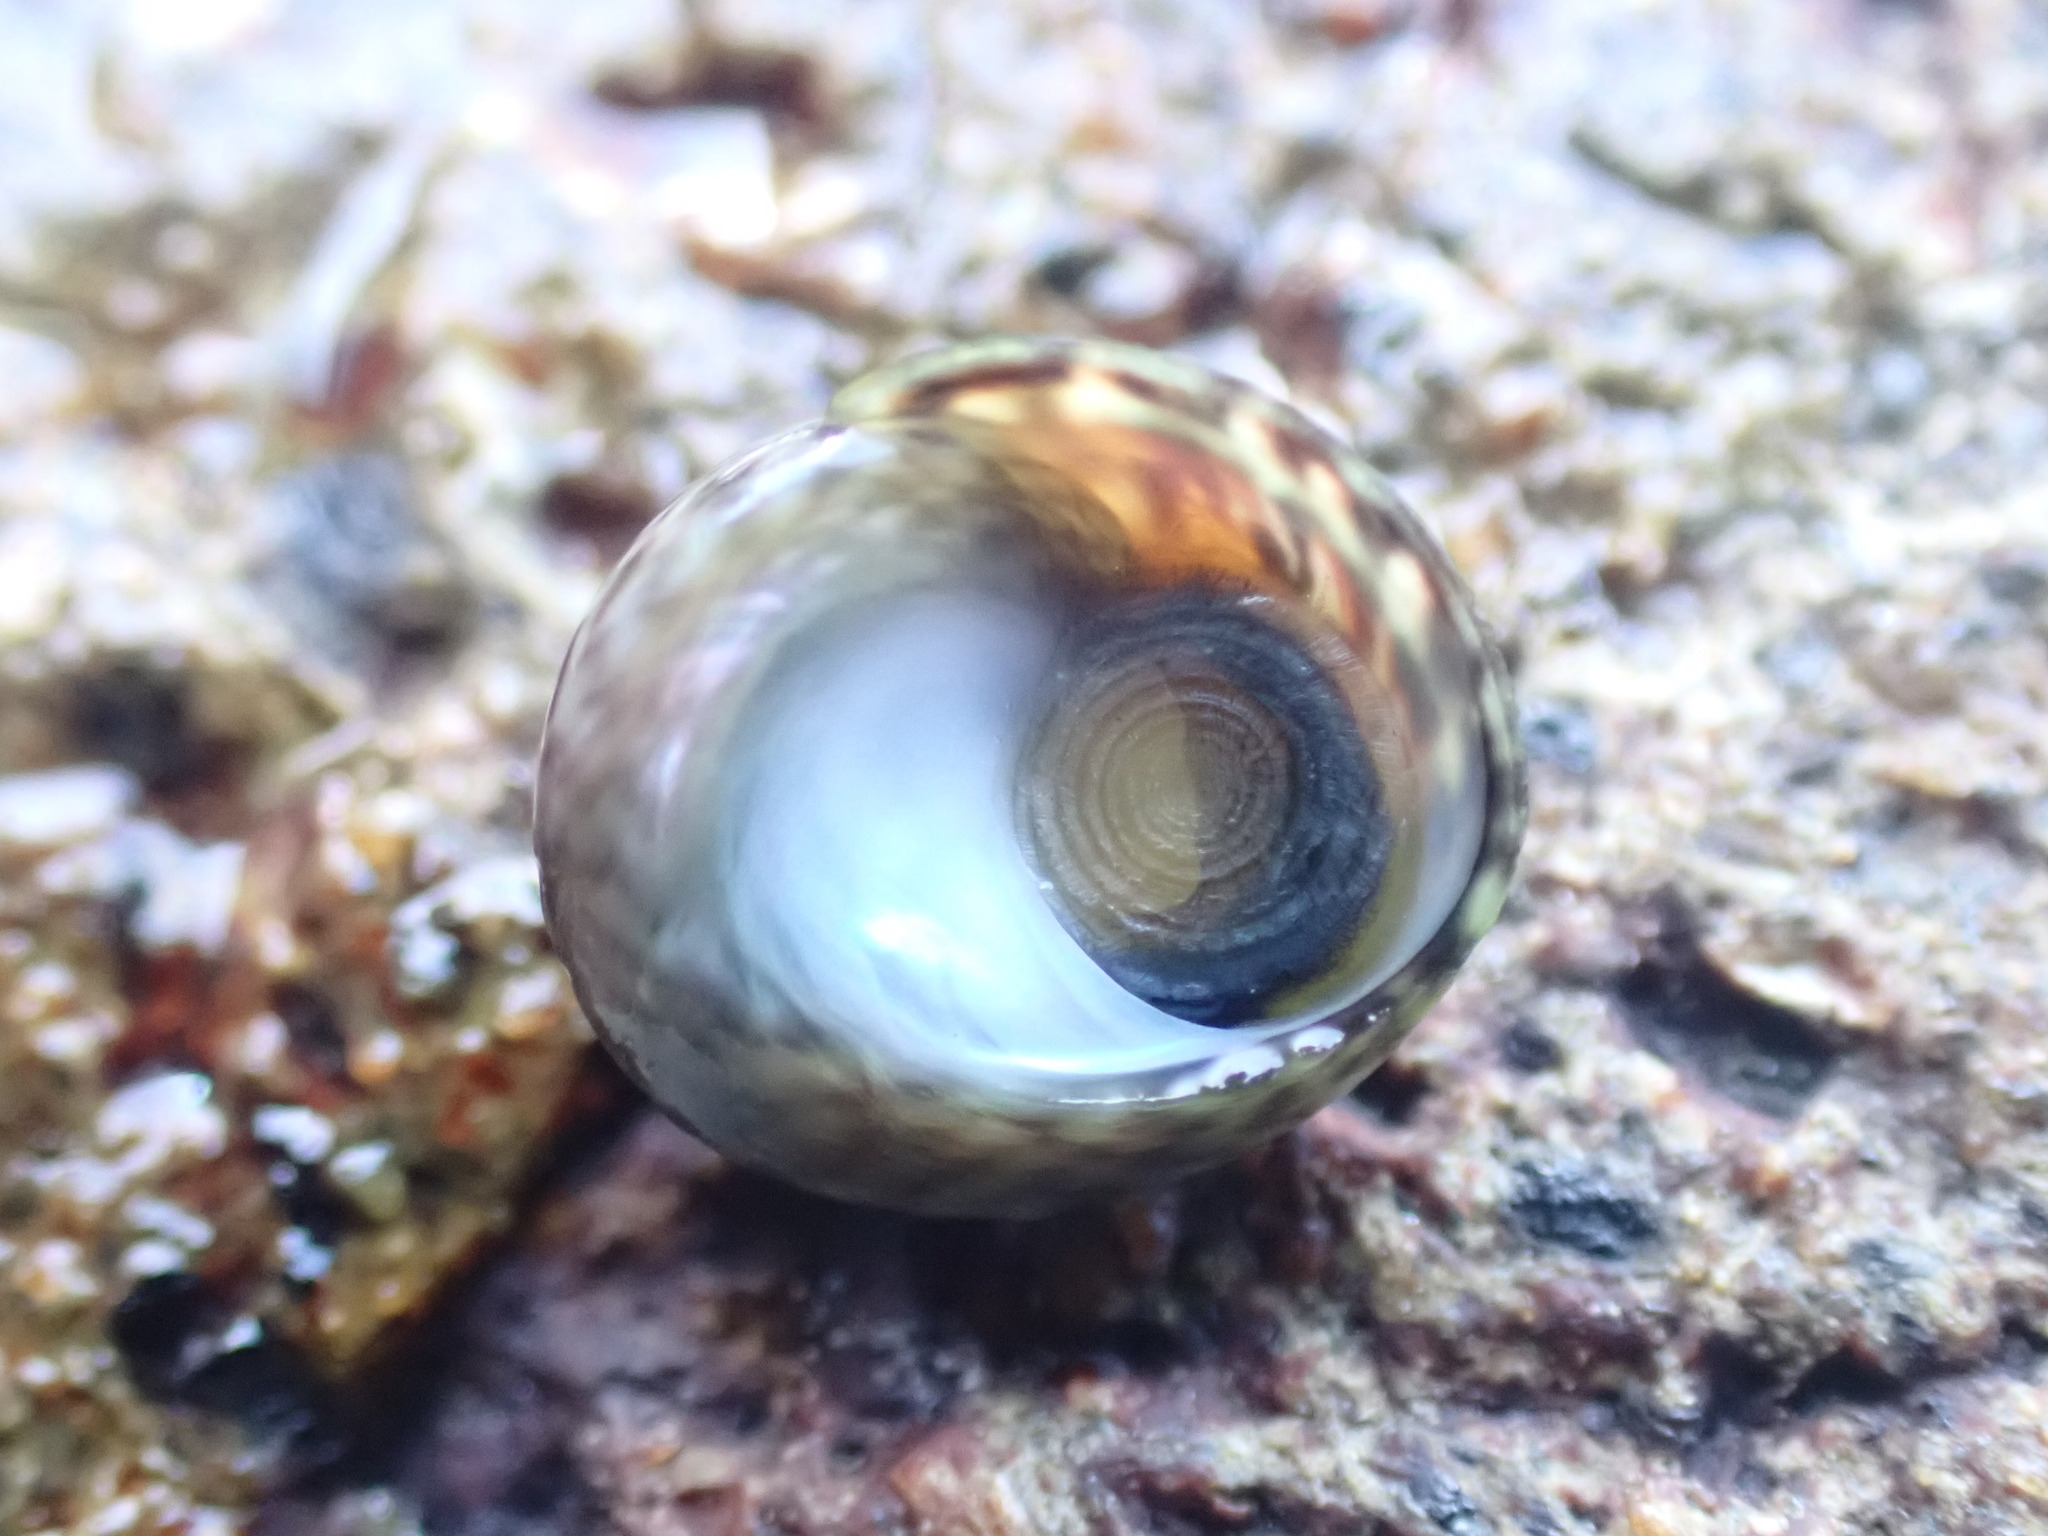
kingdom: Animalia
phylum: Mollusca
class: Gastropoda
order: Trochida
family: Trochidae
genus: Diloma
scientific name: Diloma coracinum
